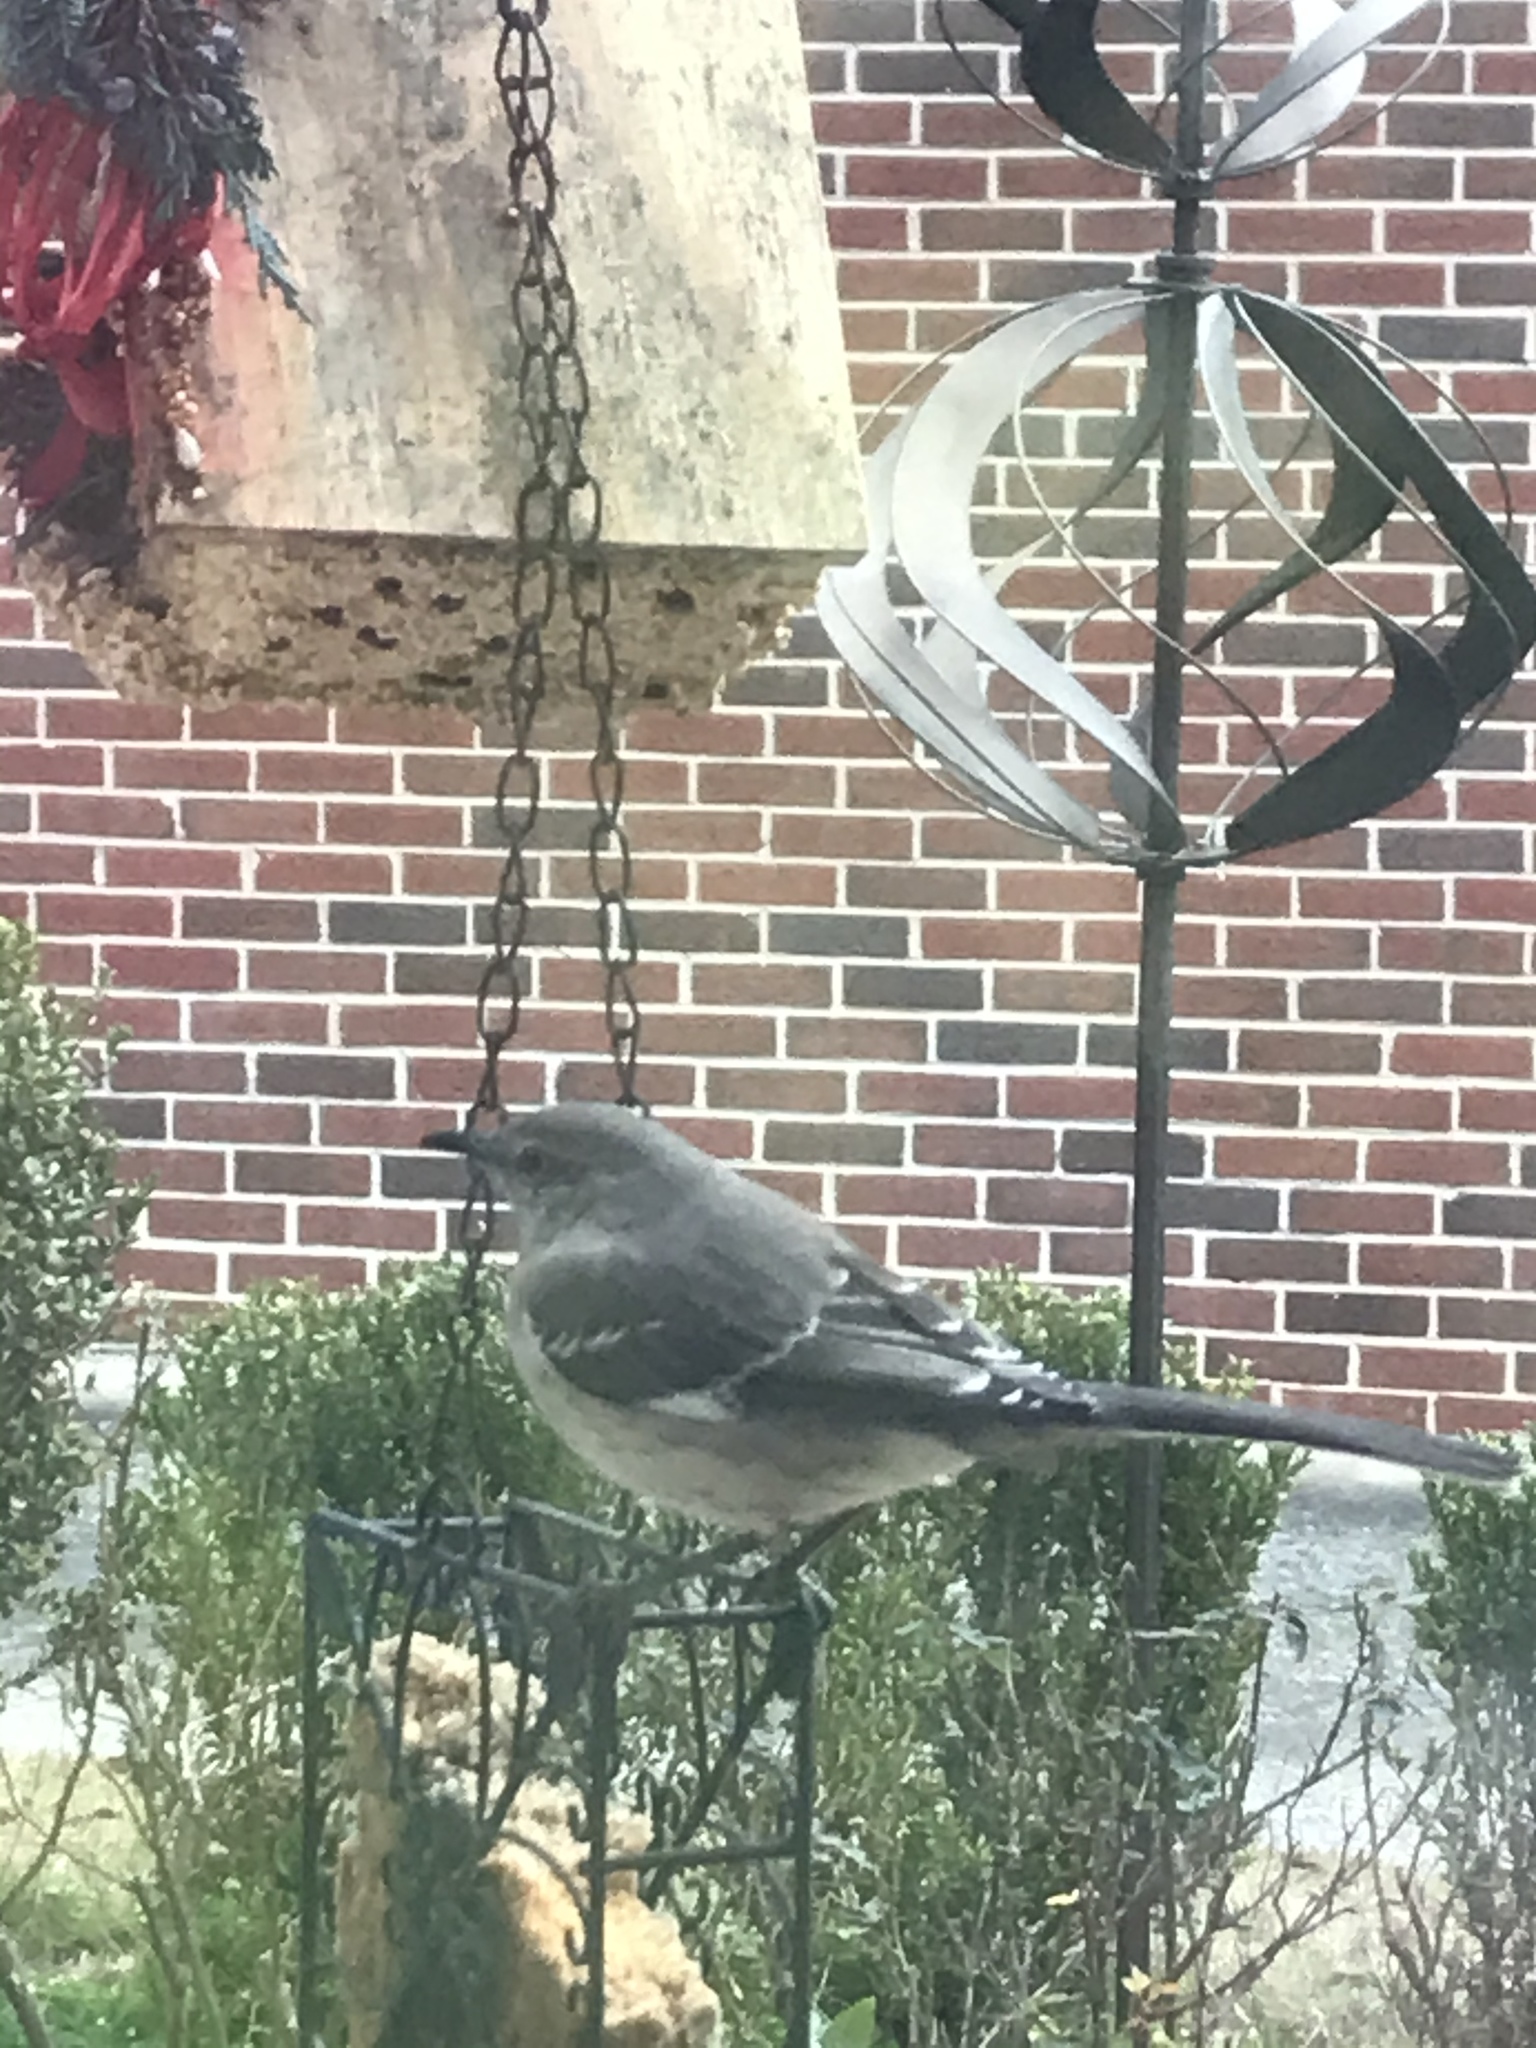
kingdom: Animalia
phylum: Chordata
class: Aves
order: Passeriformes
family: Mimidae
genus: Mimus
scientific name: Mimus polyglottos
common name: Northern mockingbird
